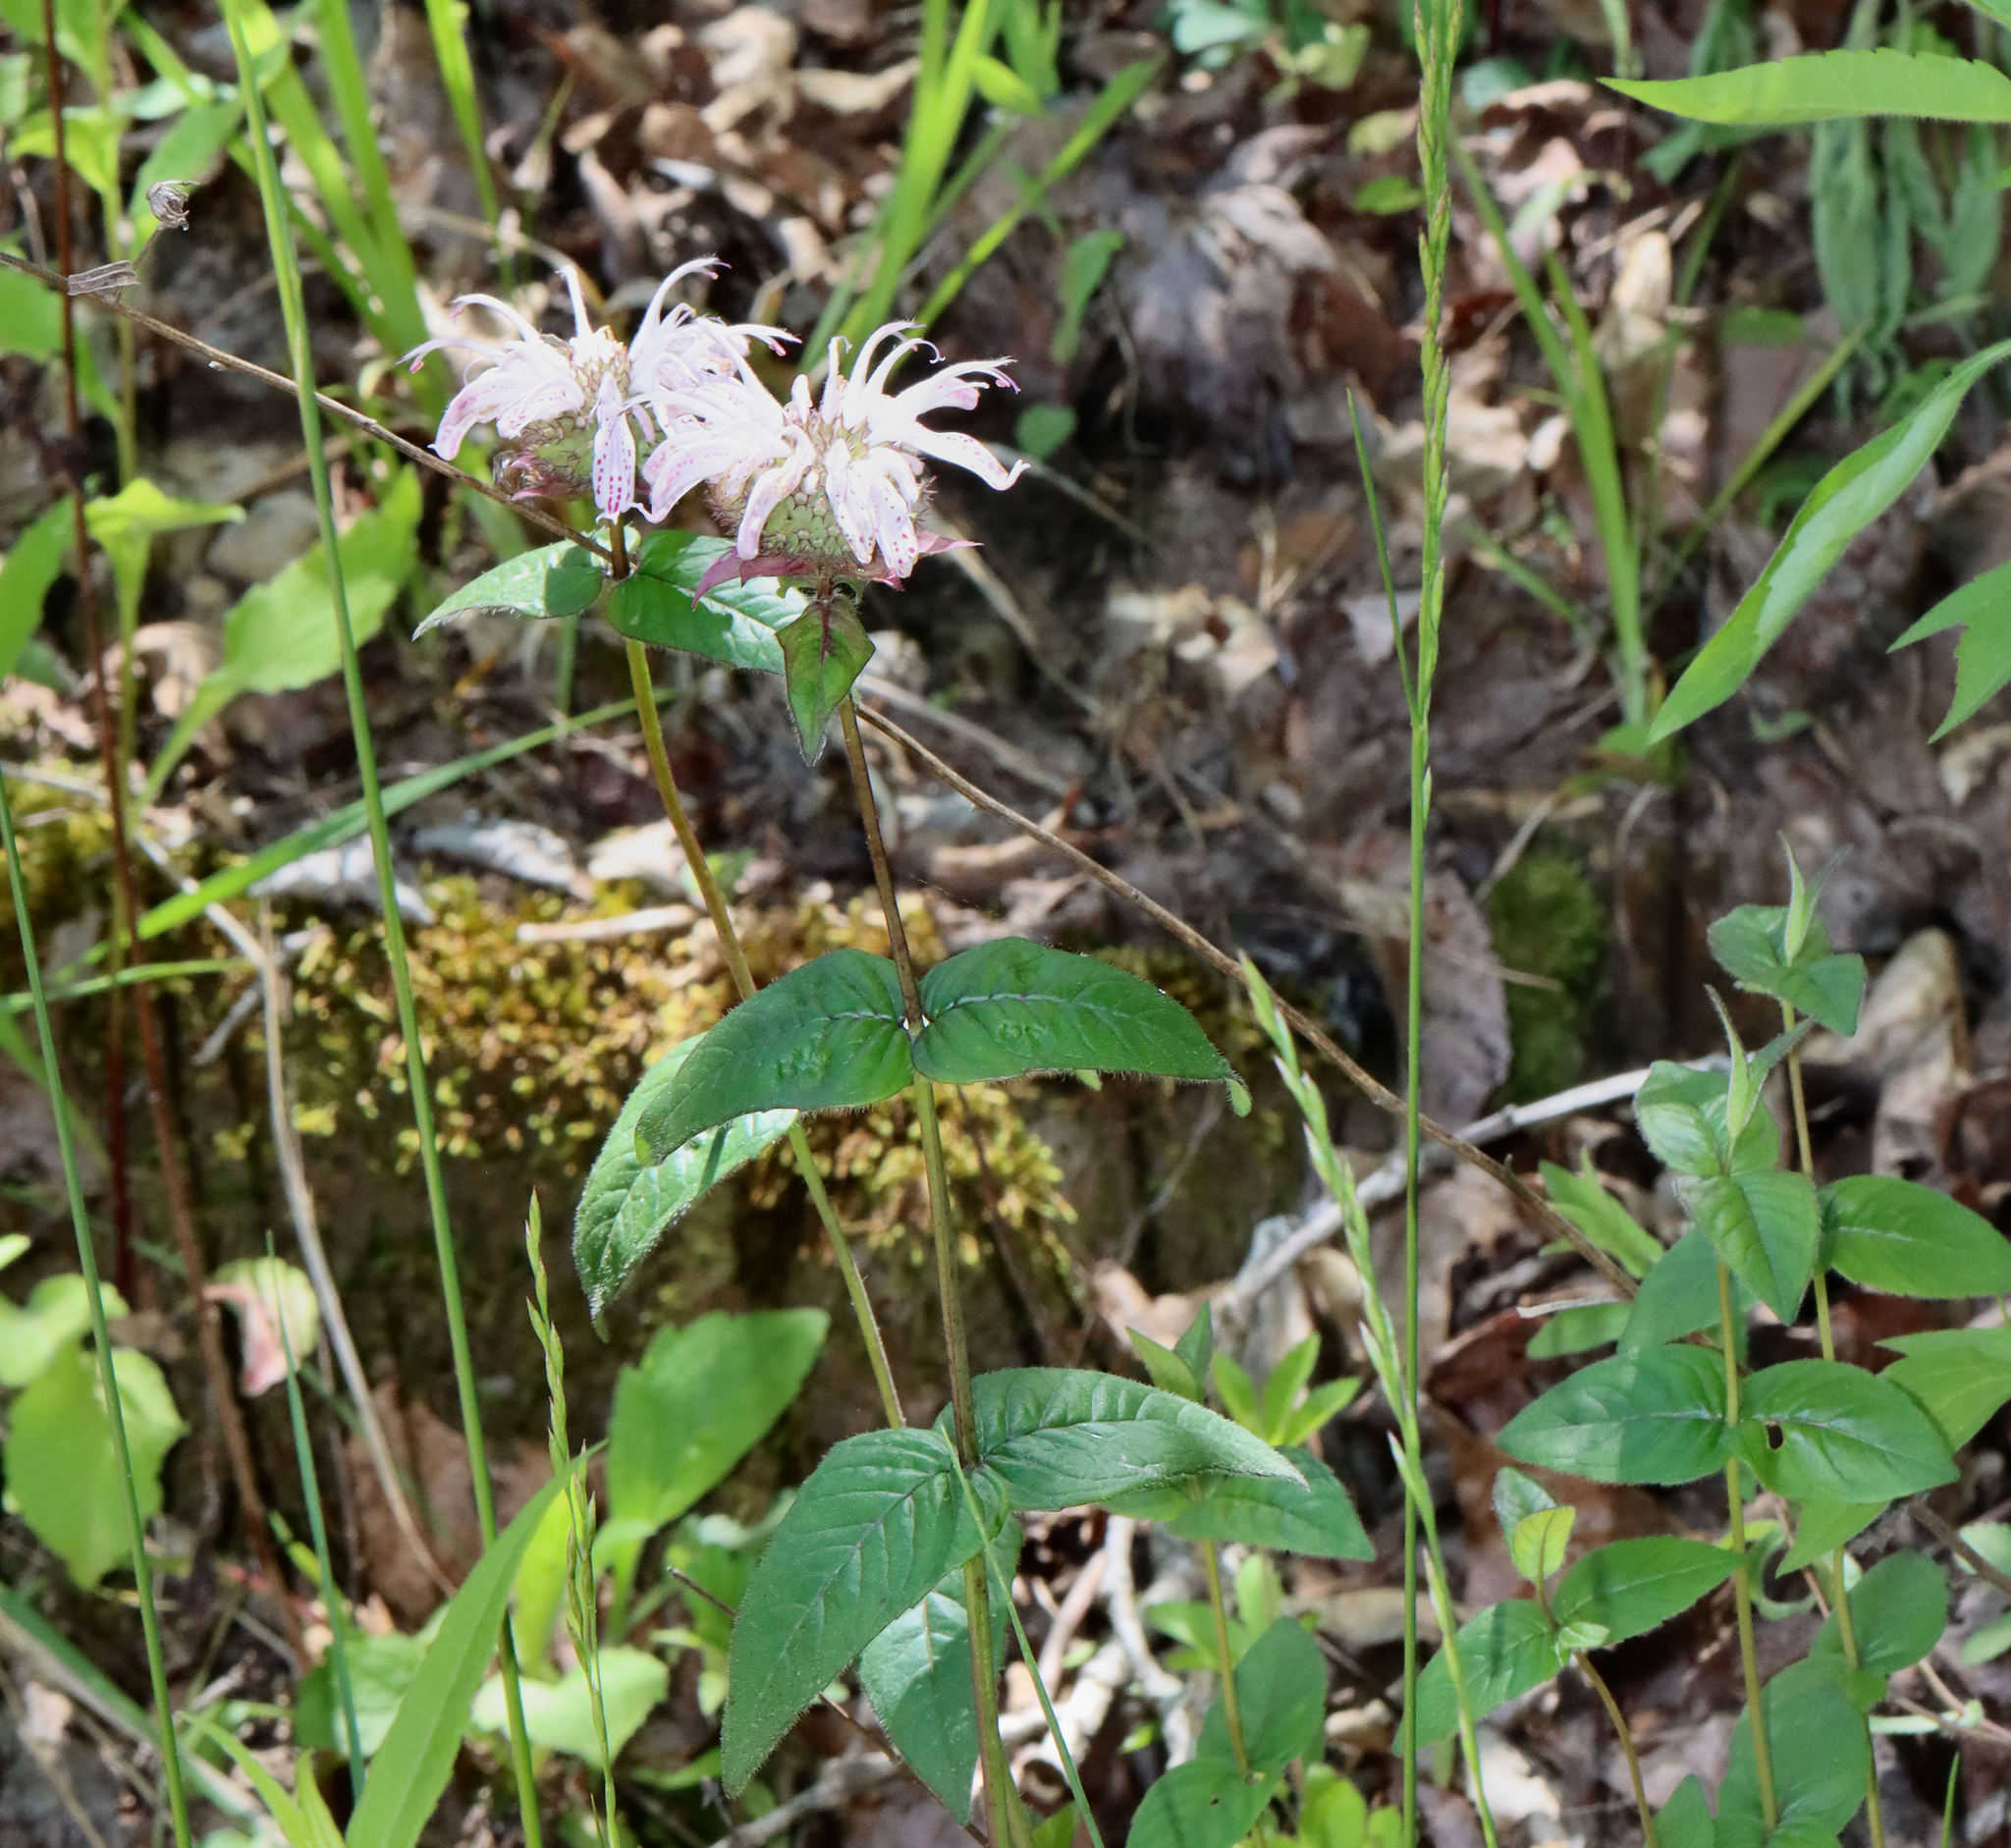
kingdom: Plantae
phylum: Tracheophyta
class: Magnoliopsida
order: Lamiales
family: Lamiaceae
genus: Monarda
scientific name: Monarda bradburiana
